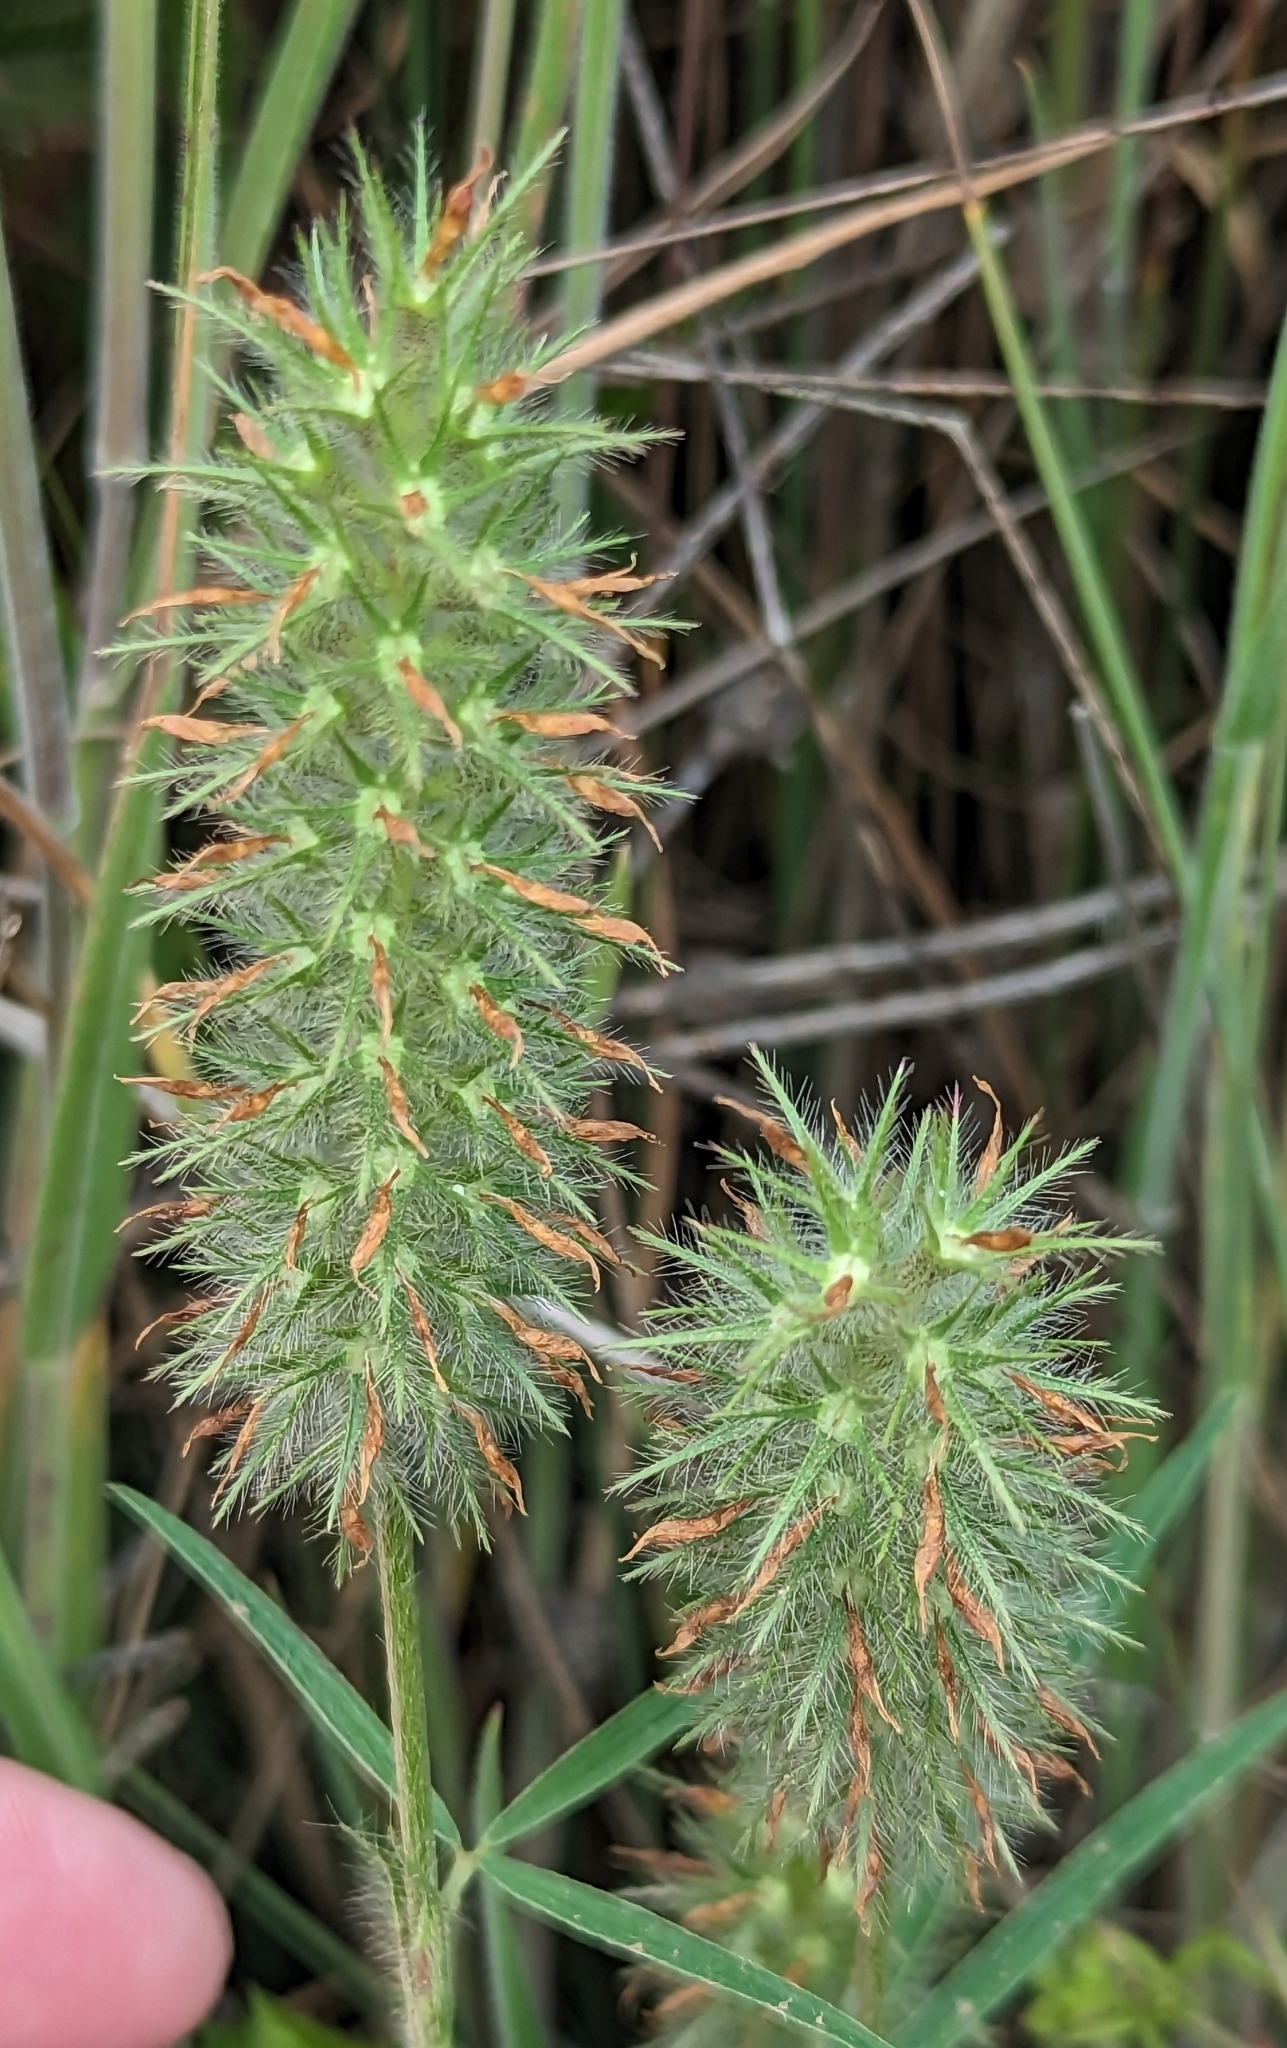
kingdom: Plantae
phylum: Tracheophyta
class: Magnoliopsida
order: Fabales
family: Fabaceae
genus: Trifolium
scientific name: Trifolium angustifolium
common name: Narrow clover
